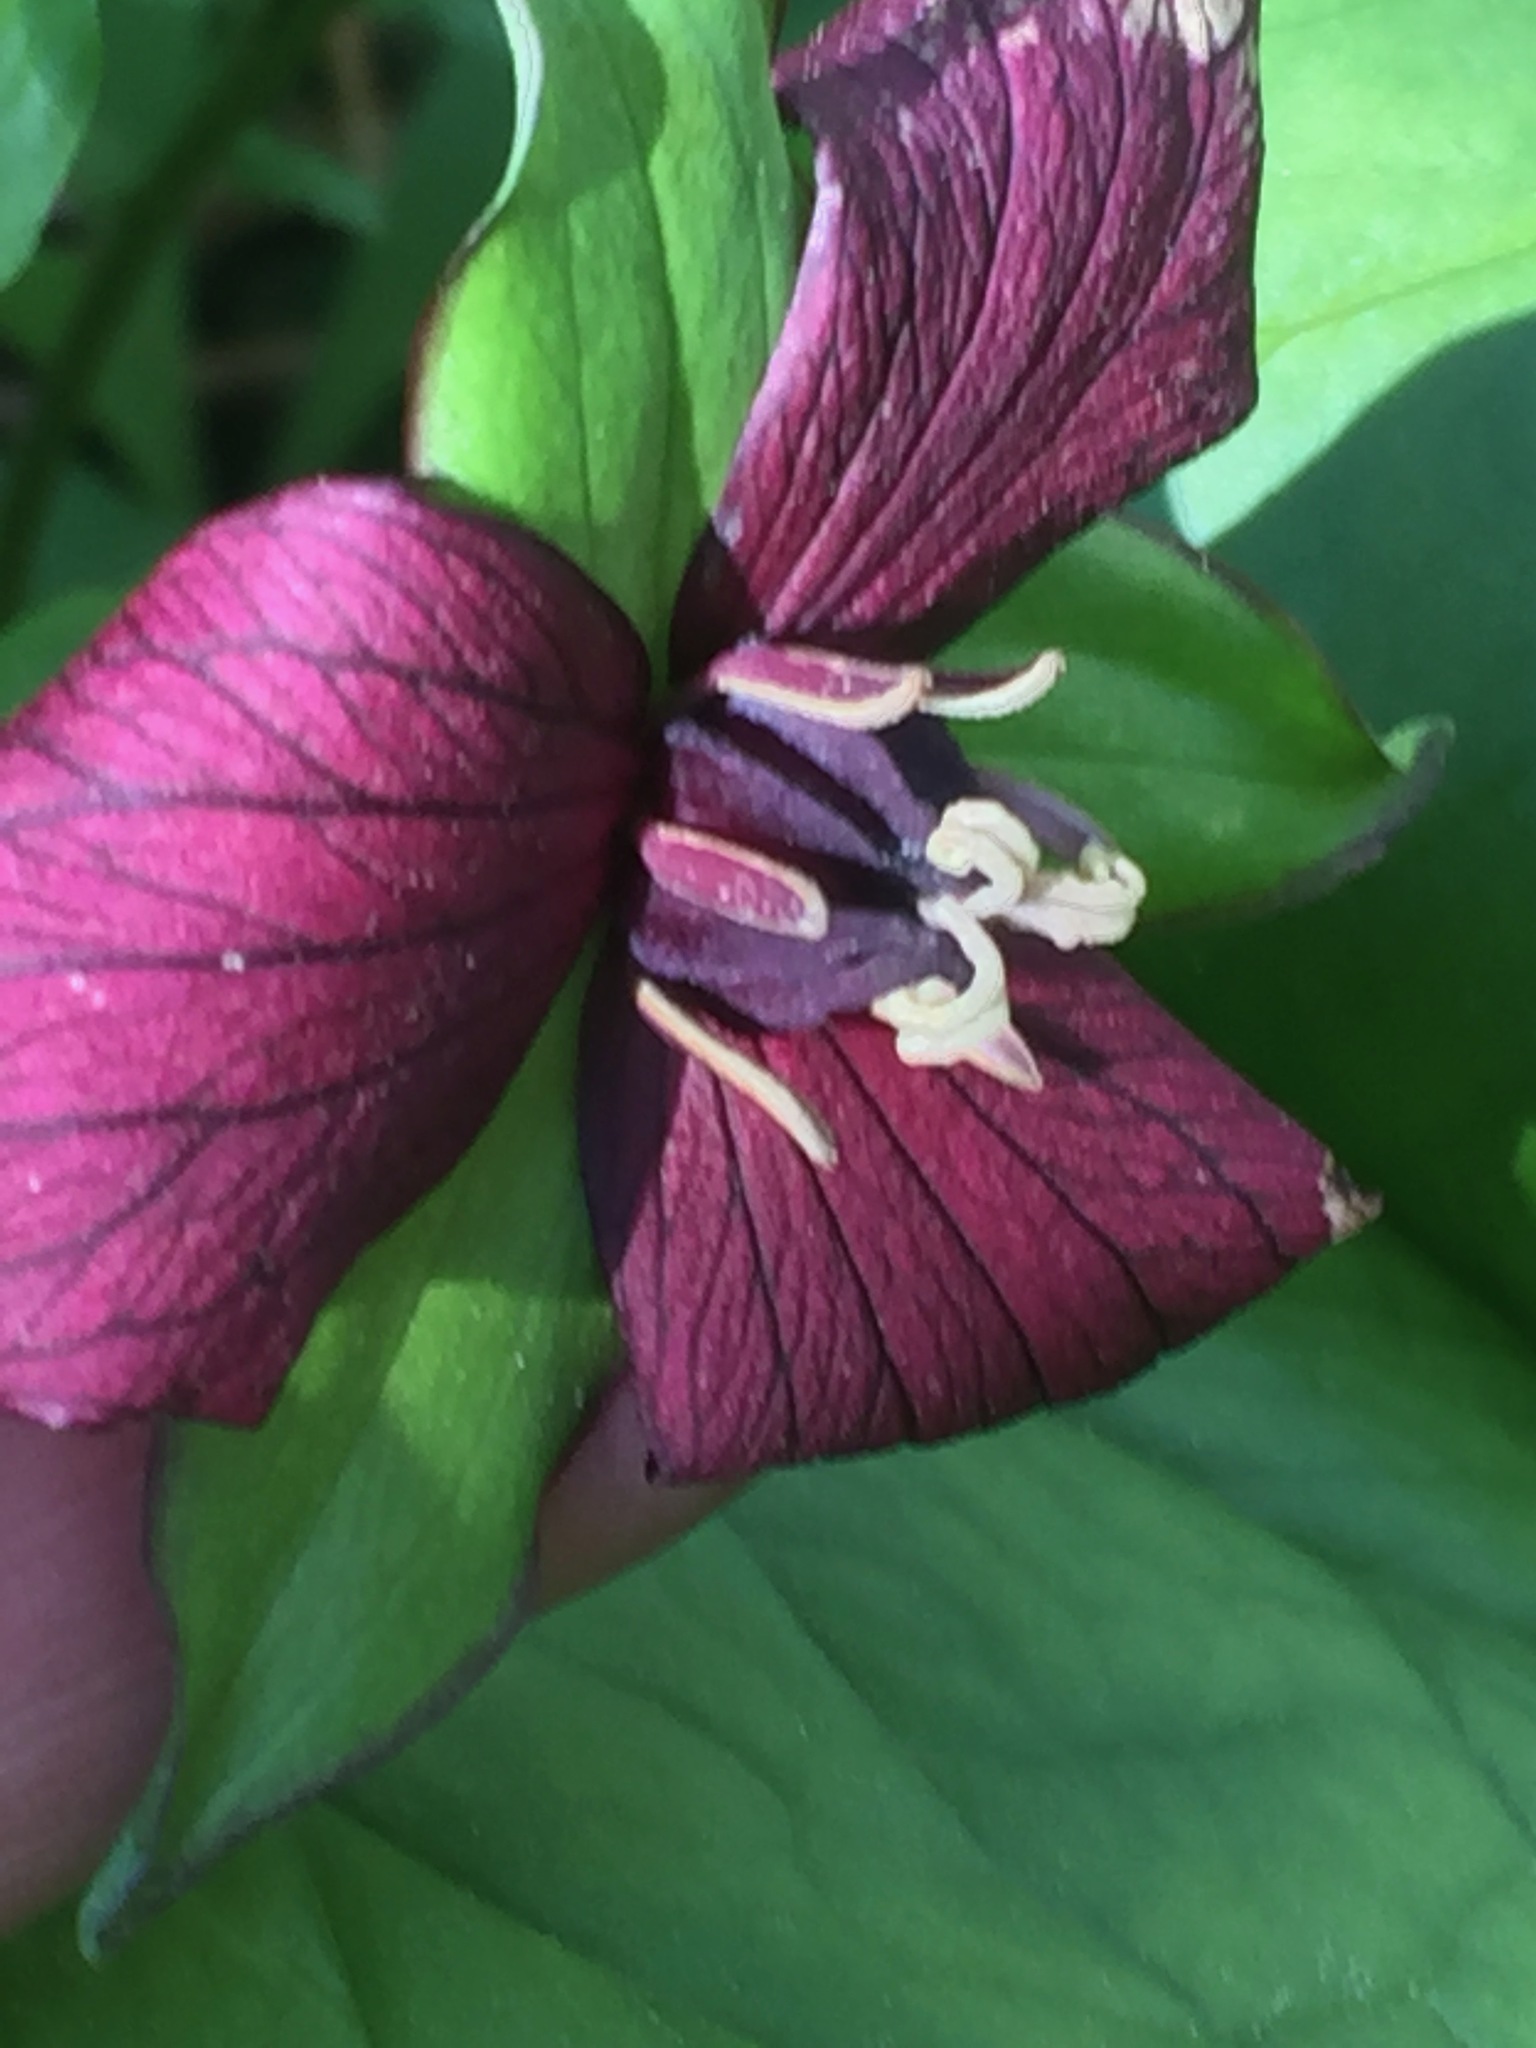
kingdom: Plantae
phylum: Tracheophyta
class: Liliopsida
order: Liliales
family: Melanthiaceae
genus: Trillium
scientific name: Trillium erectum
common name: Purple trillium
